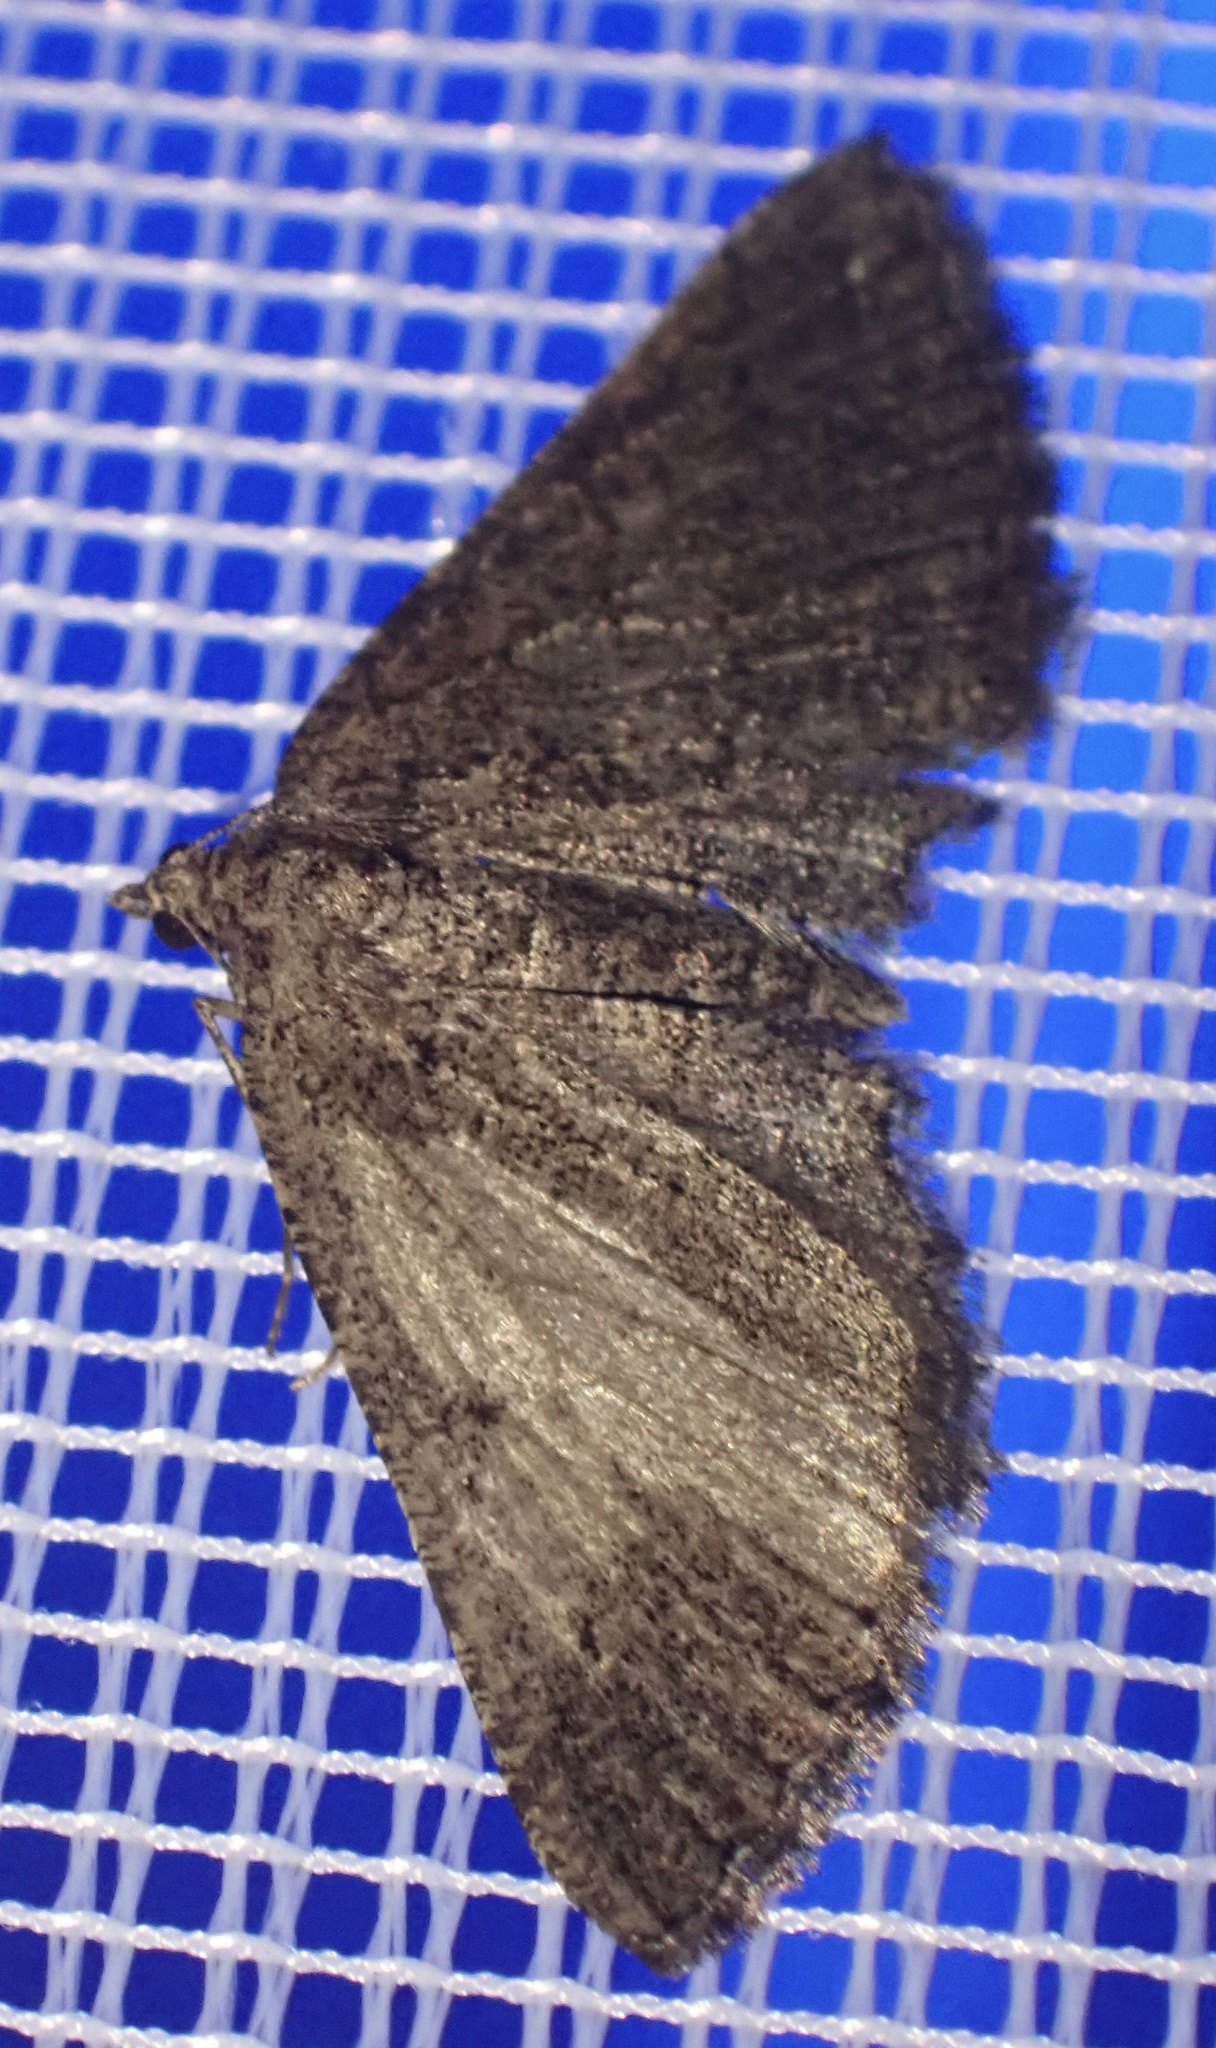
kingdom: Animalia
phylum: Arthropoda
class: Insecta
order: Lepidoptera
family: Geometridae
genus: Rhoptria
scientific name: Rhoptria asperaria
